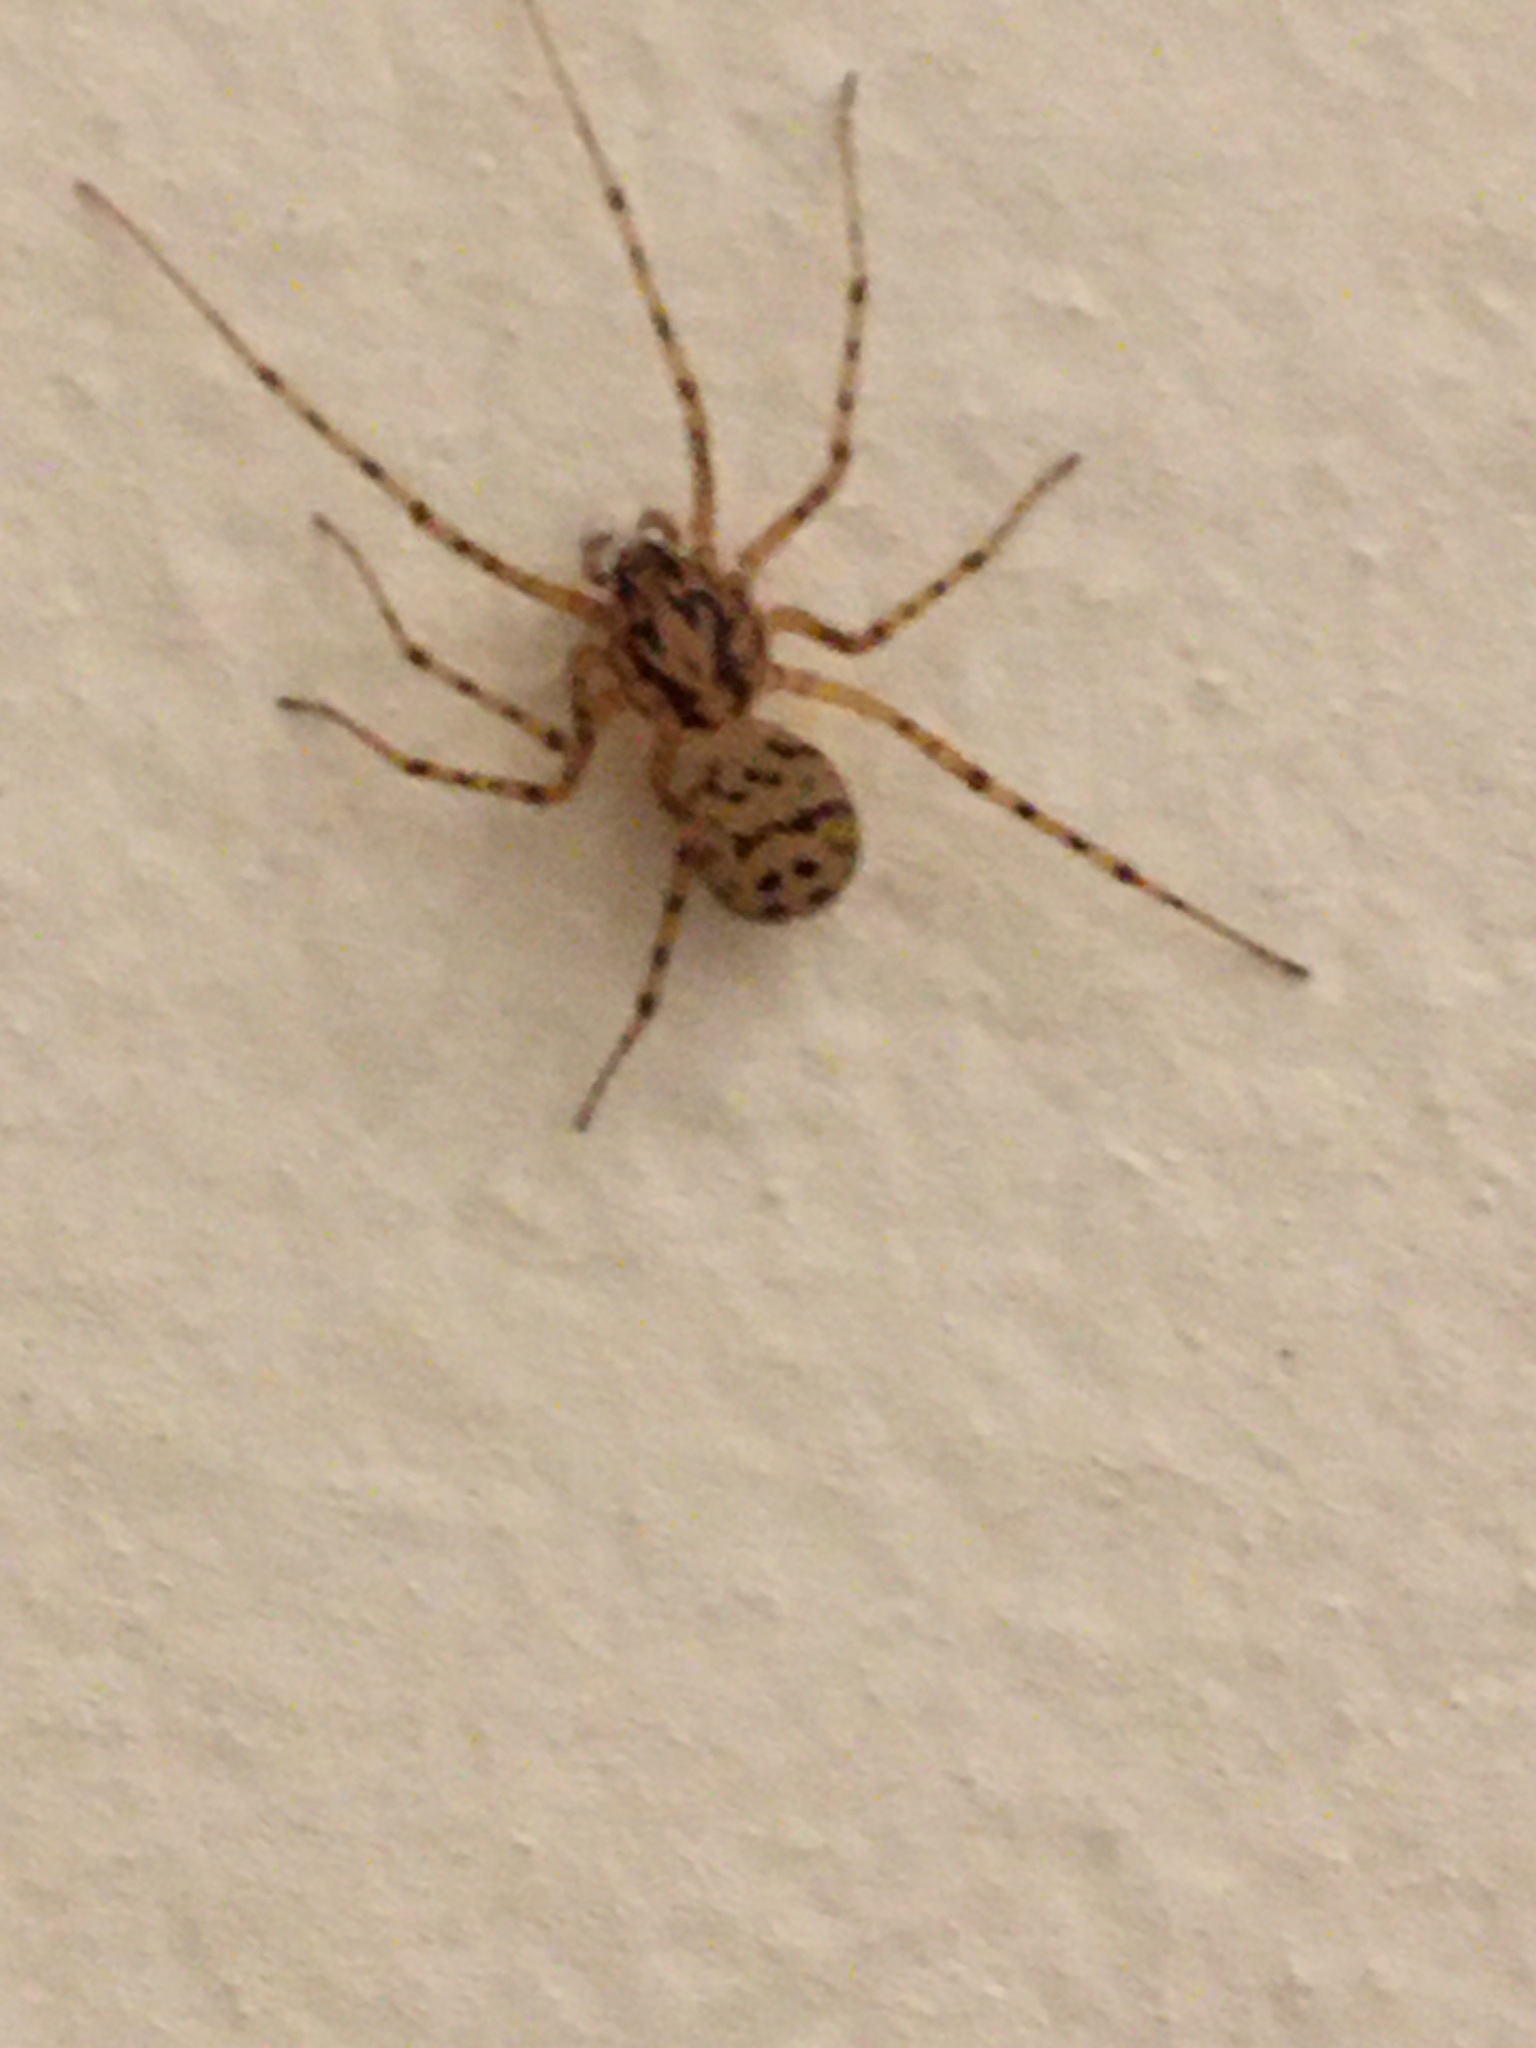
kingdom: Animalia
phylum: Arthropoda
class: Arachnida
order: Araneae
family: Scytodidae
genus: Scytodes
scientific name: Scytodes thoracica
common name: Spitting spider
